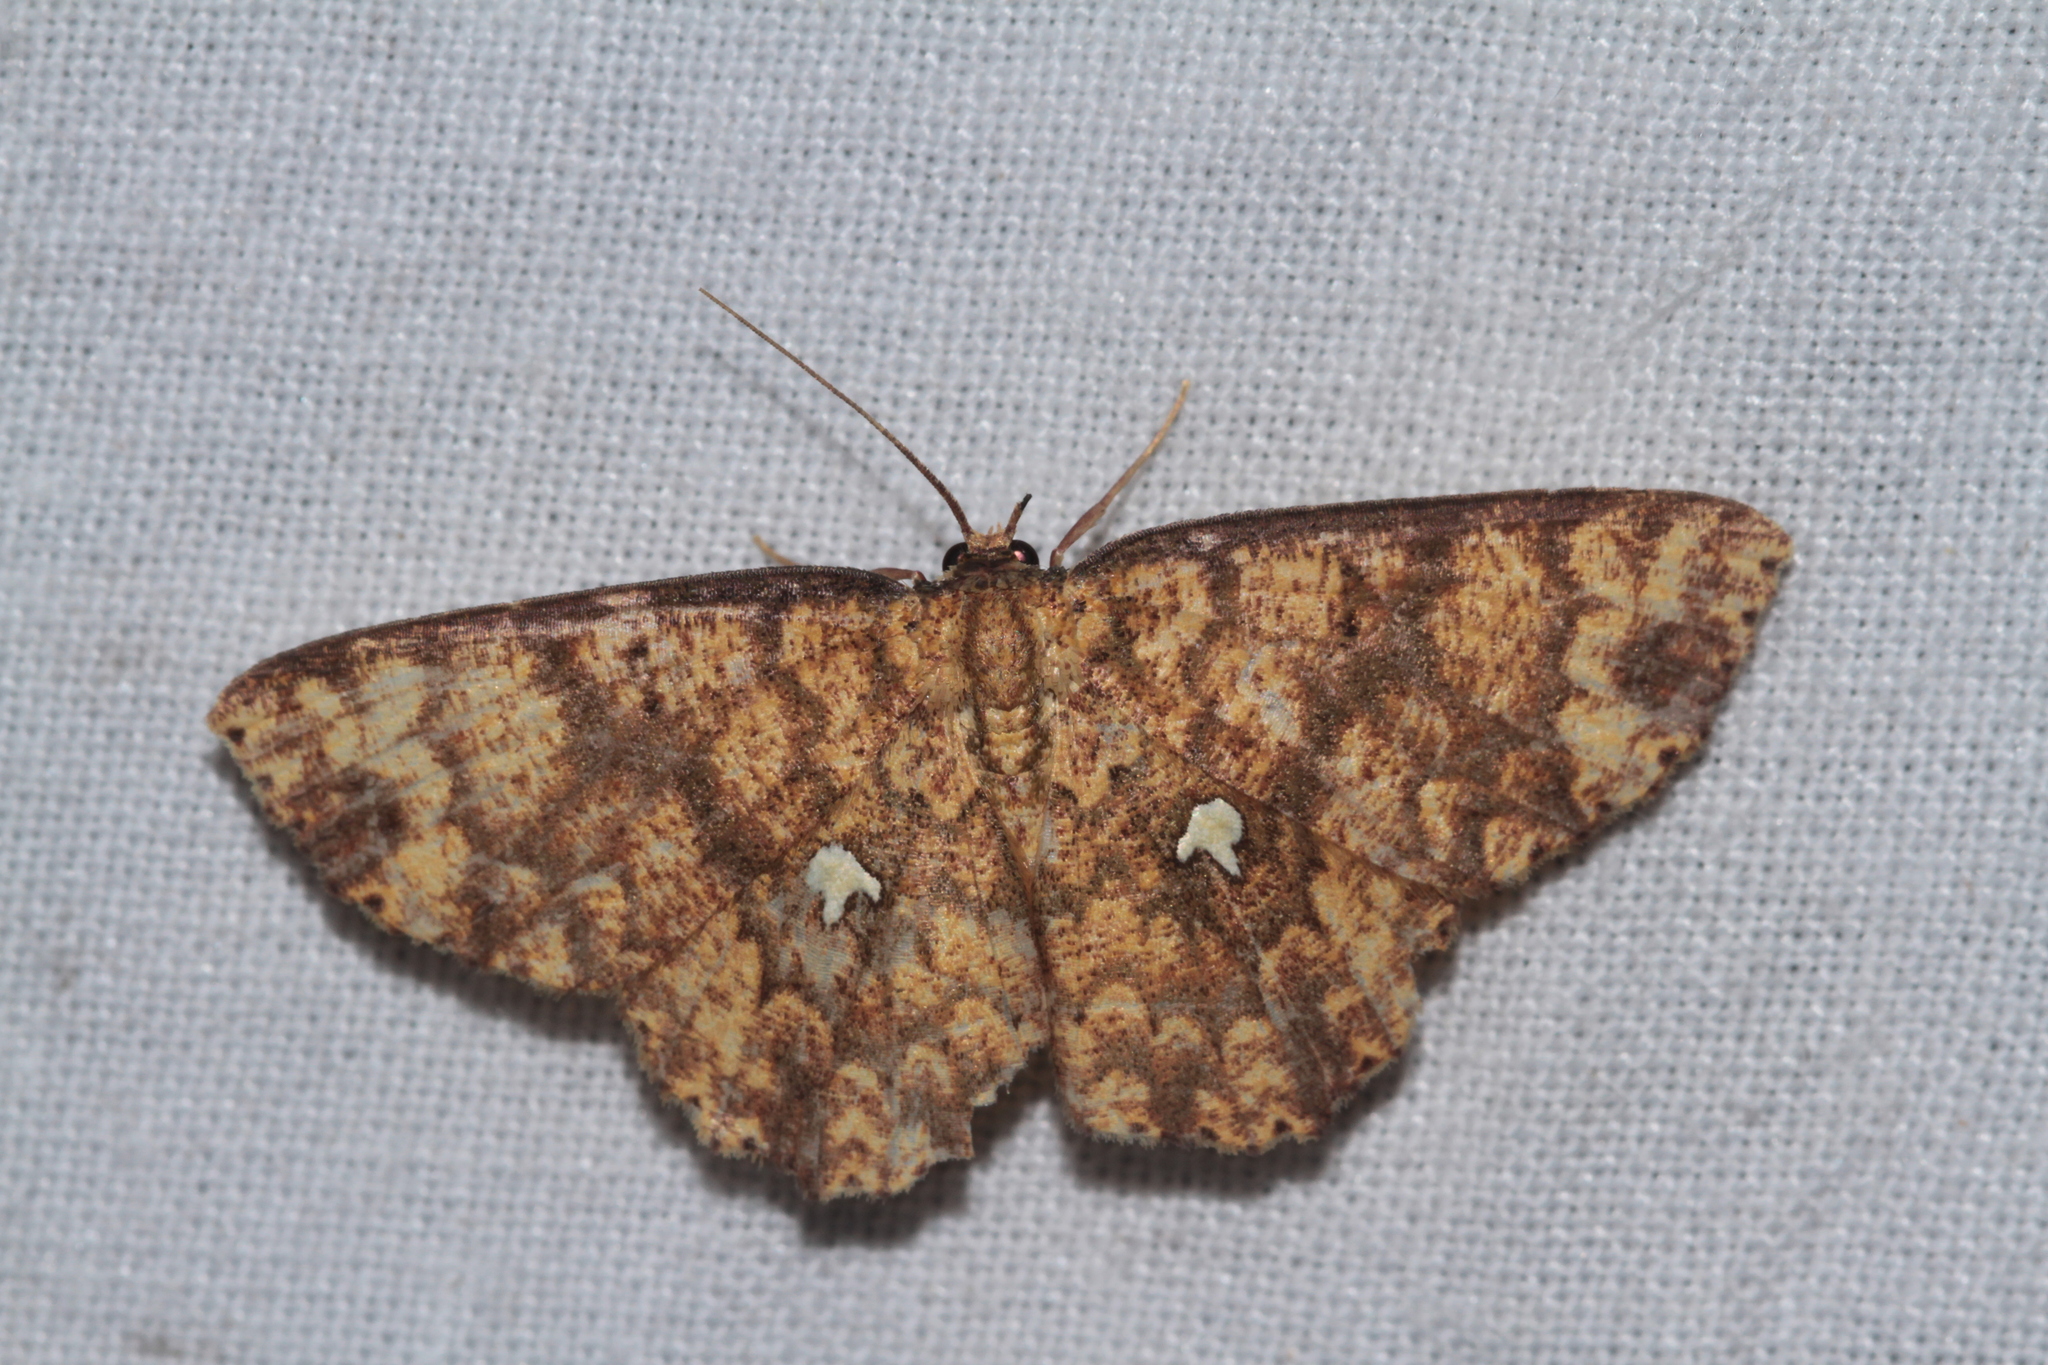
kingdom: Animalia
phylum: Arthropoda
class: Insecta
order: Lepidoptera
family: Geometridae
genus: Cyclophora
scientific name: Cyclophora nodigera
